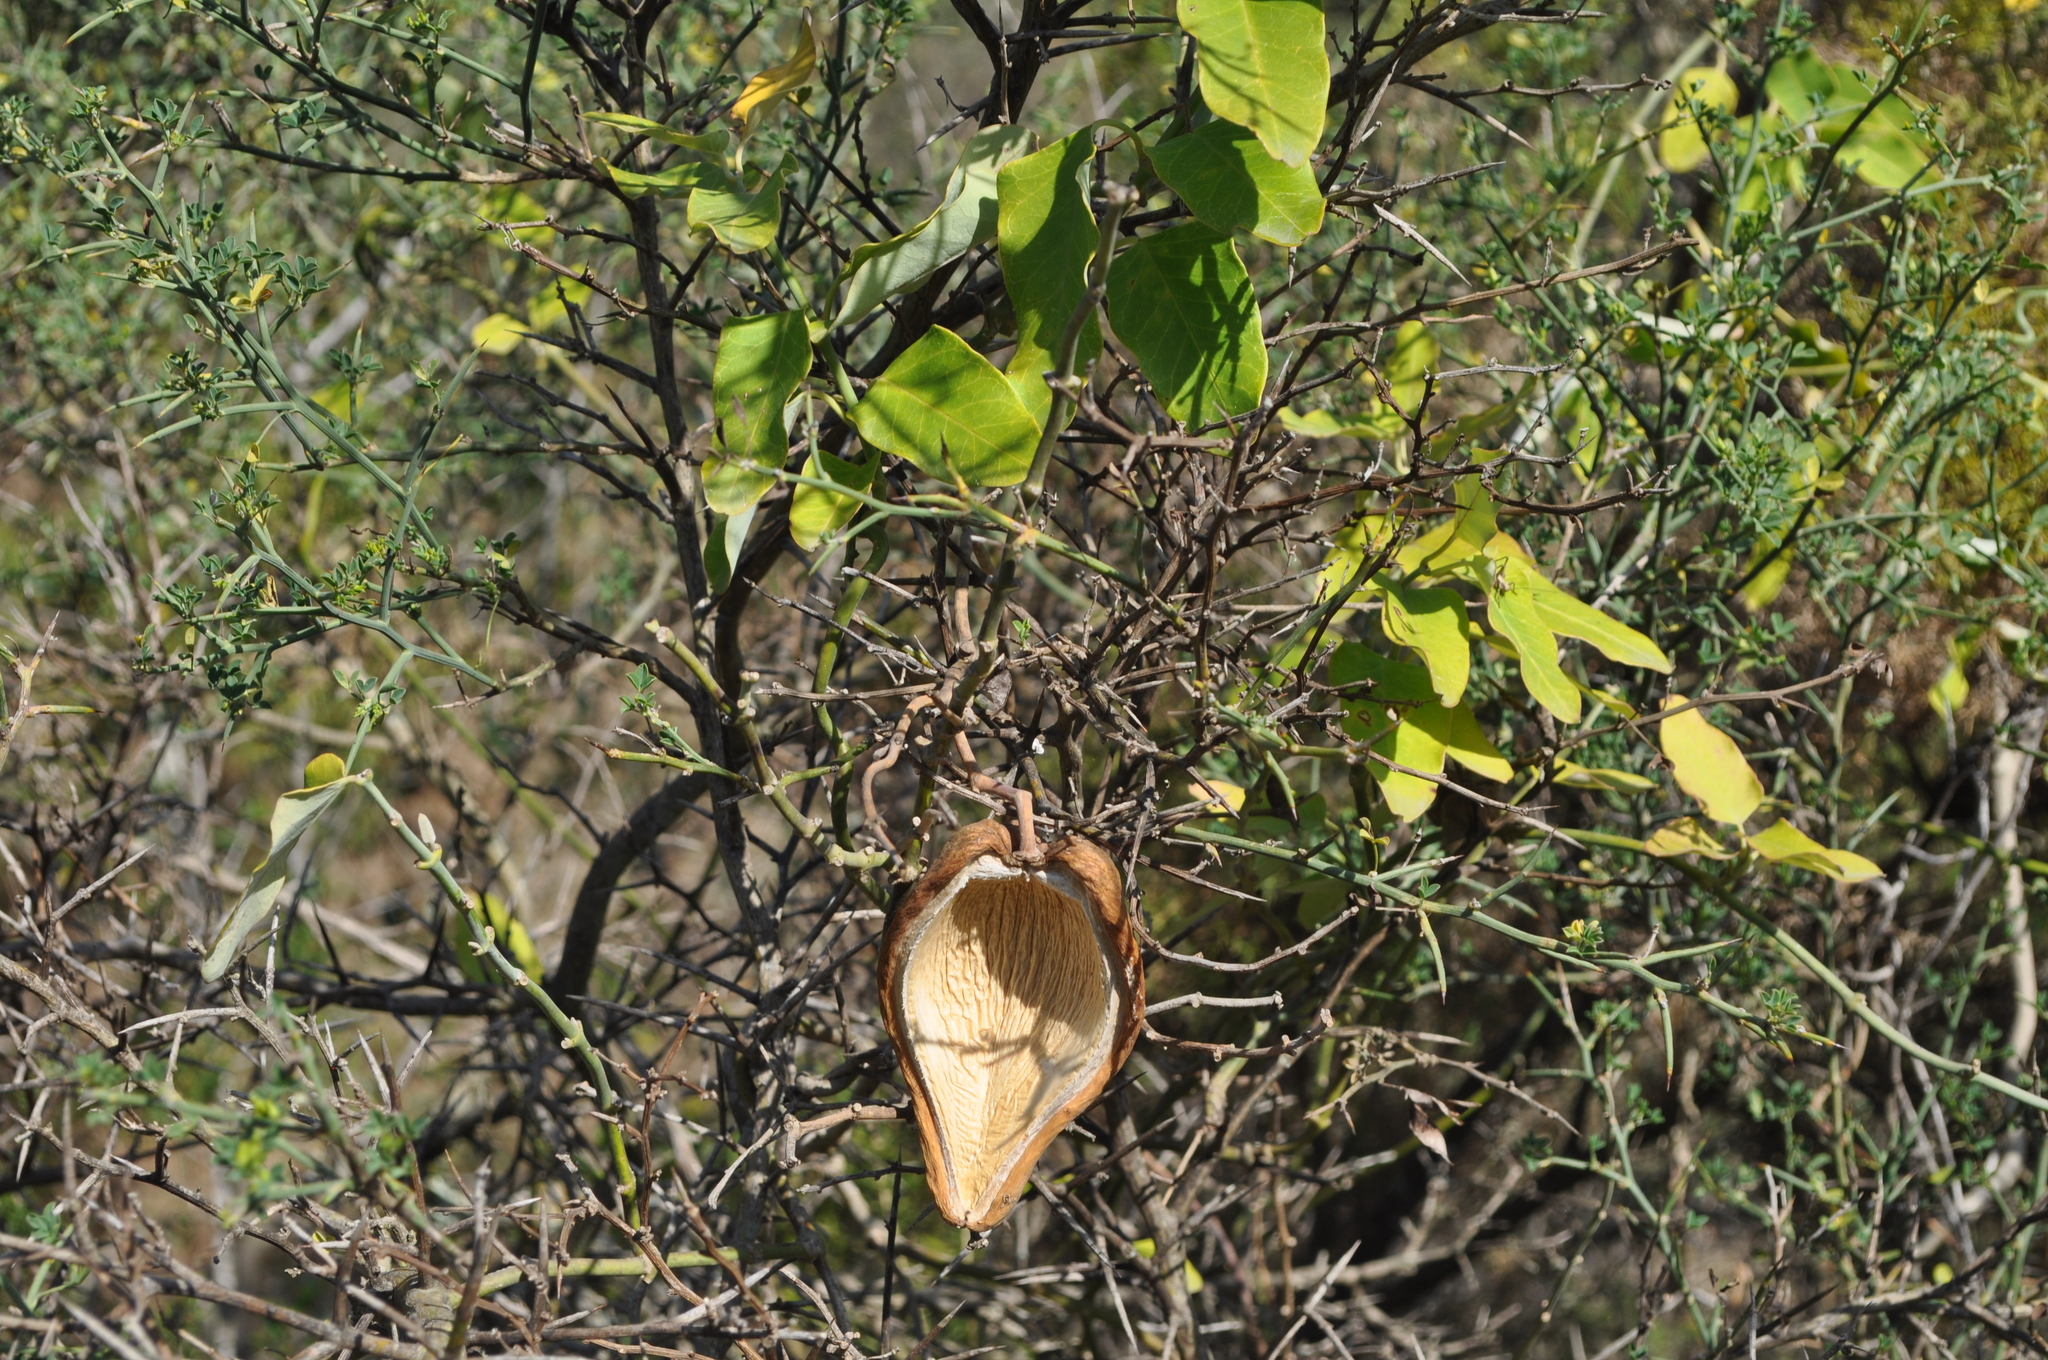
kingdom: Plantae
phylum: Tracheophyta
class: Magnoliopsida
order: Gentianales
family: Apocynaceae
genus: Araujia
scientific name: Araujia sericifera
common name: White bladderflower
